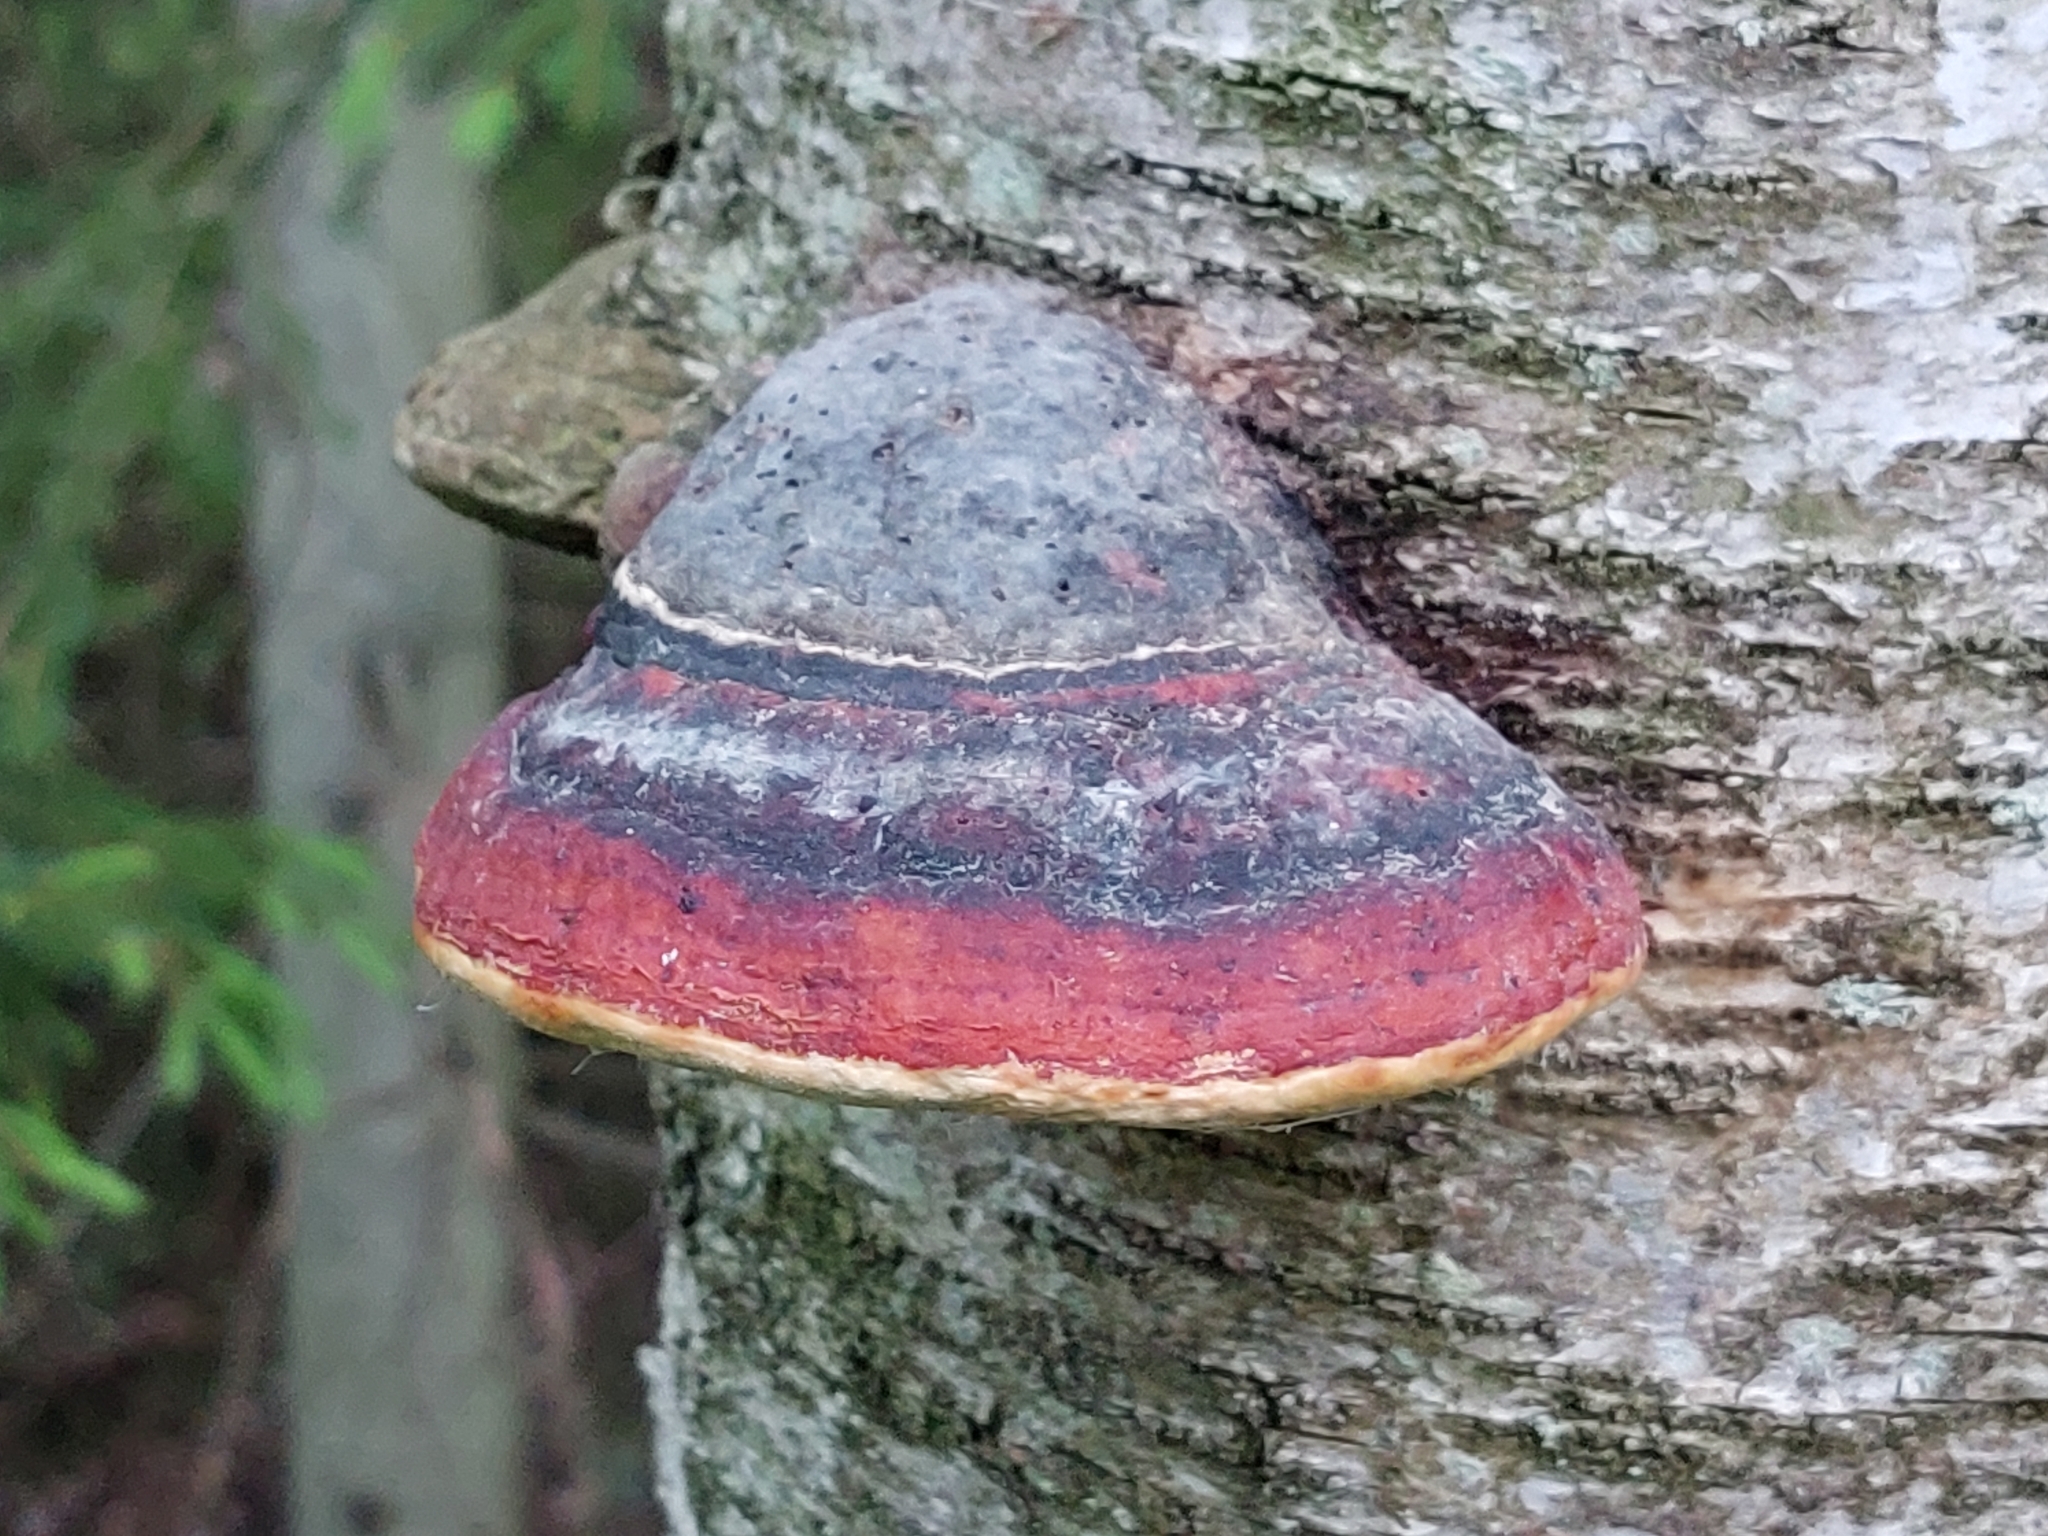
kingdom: Fungi
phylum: Basidiomycota
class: Agaricomycetes
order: Polyporales
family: Fomitopsidaceae
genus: Fomitopsis
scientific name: Fomitopsis pinicola
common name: Red-belted bracket
